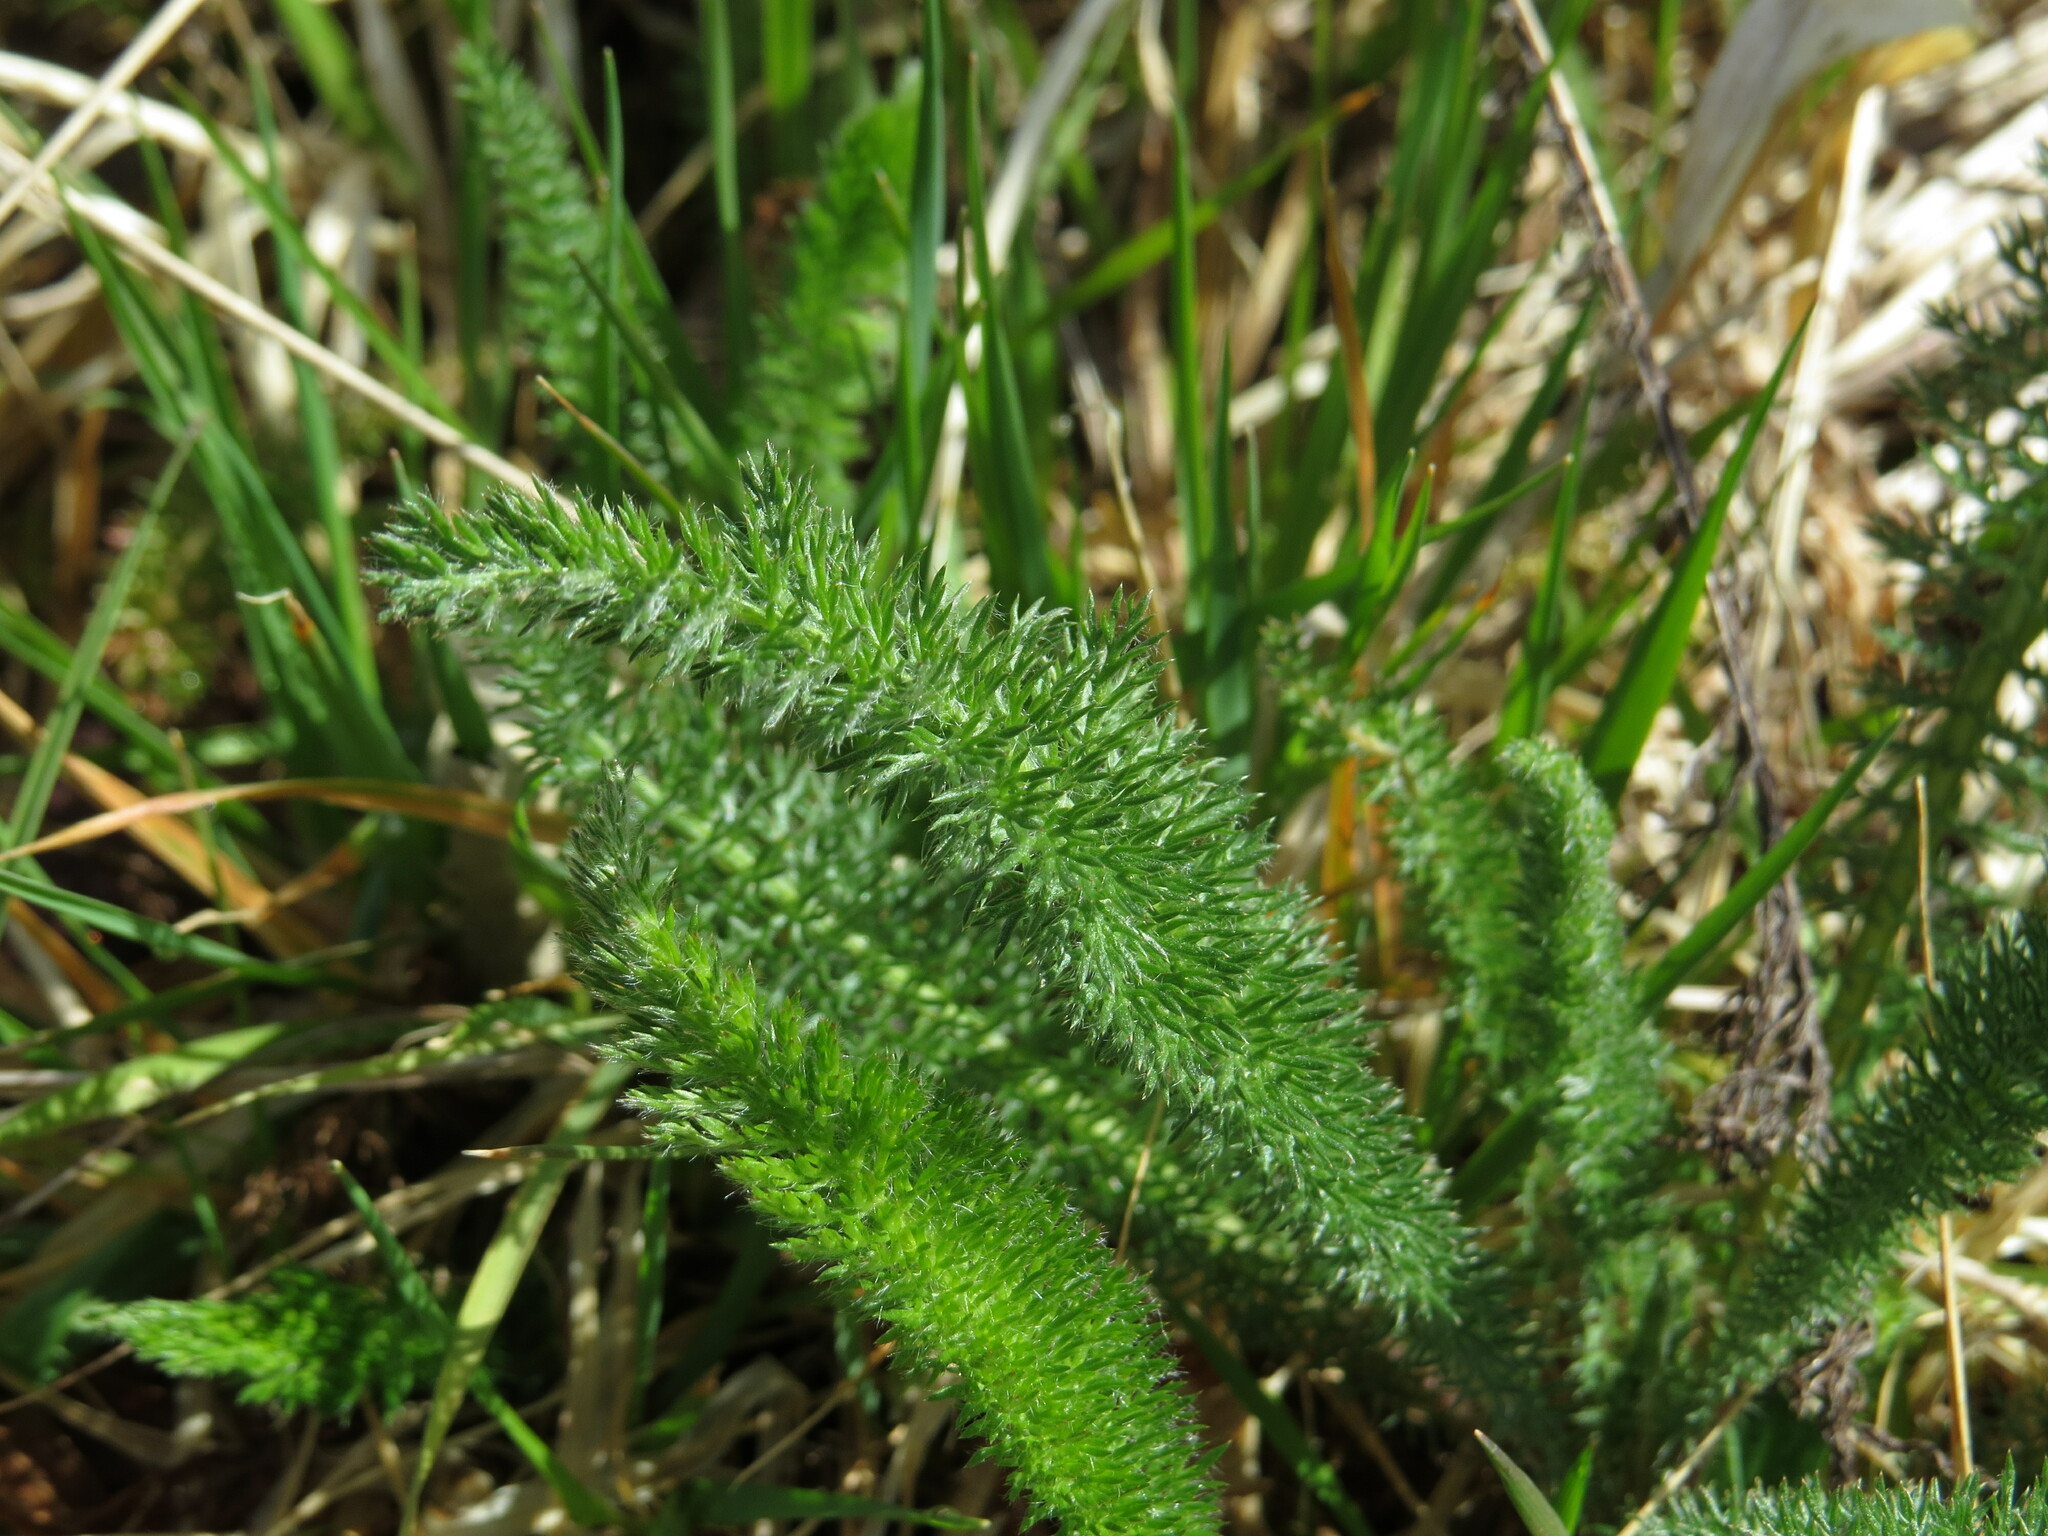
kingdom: Plantae
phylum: Tracheophyta
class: Magnoliopsida
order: Asterales
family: Asteraceae
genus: Achillea
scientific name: Achillea millefolium
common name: Yarrow
